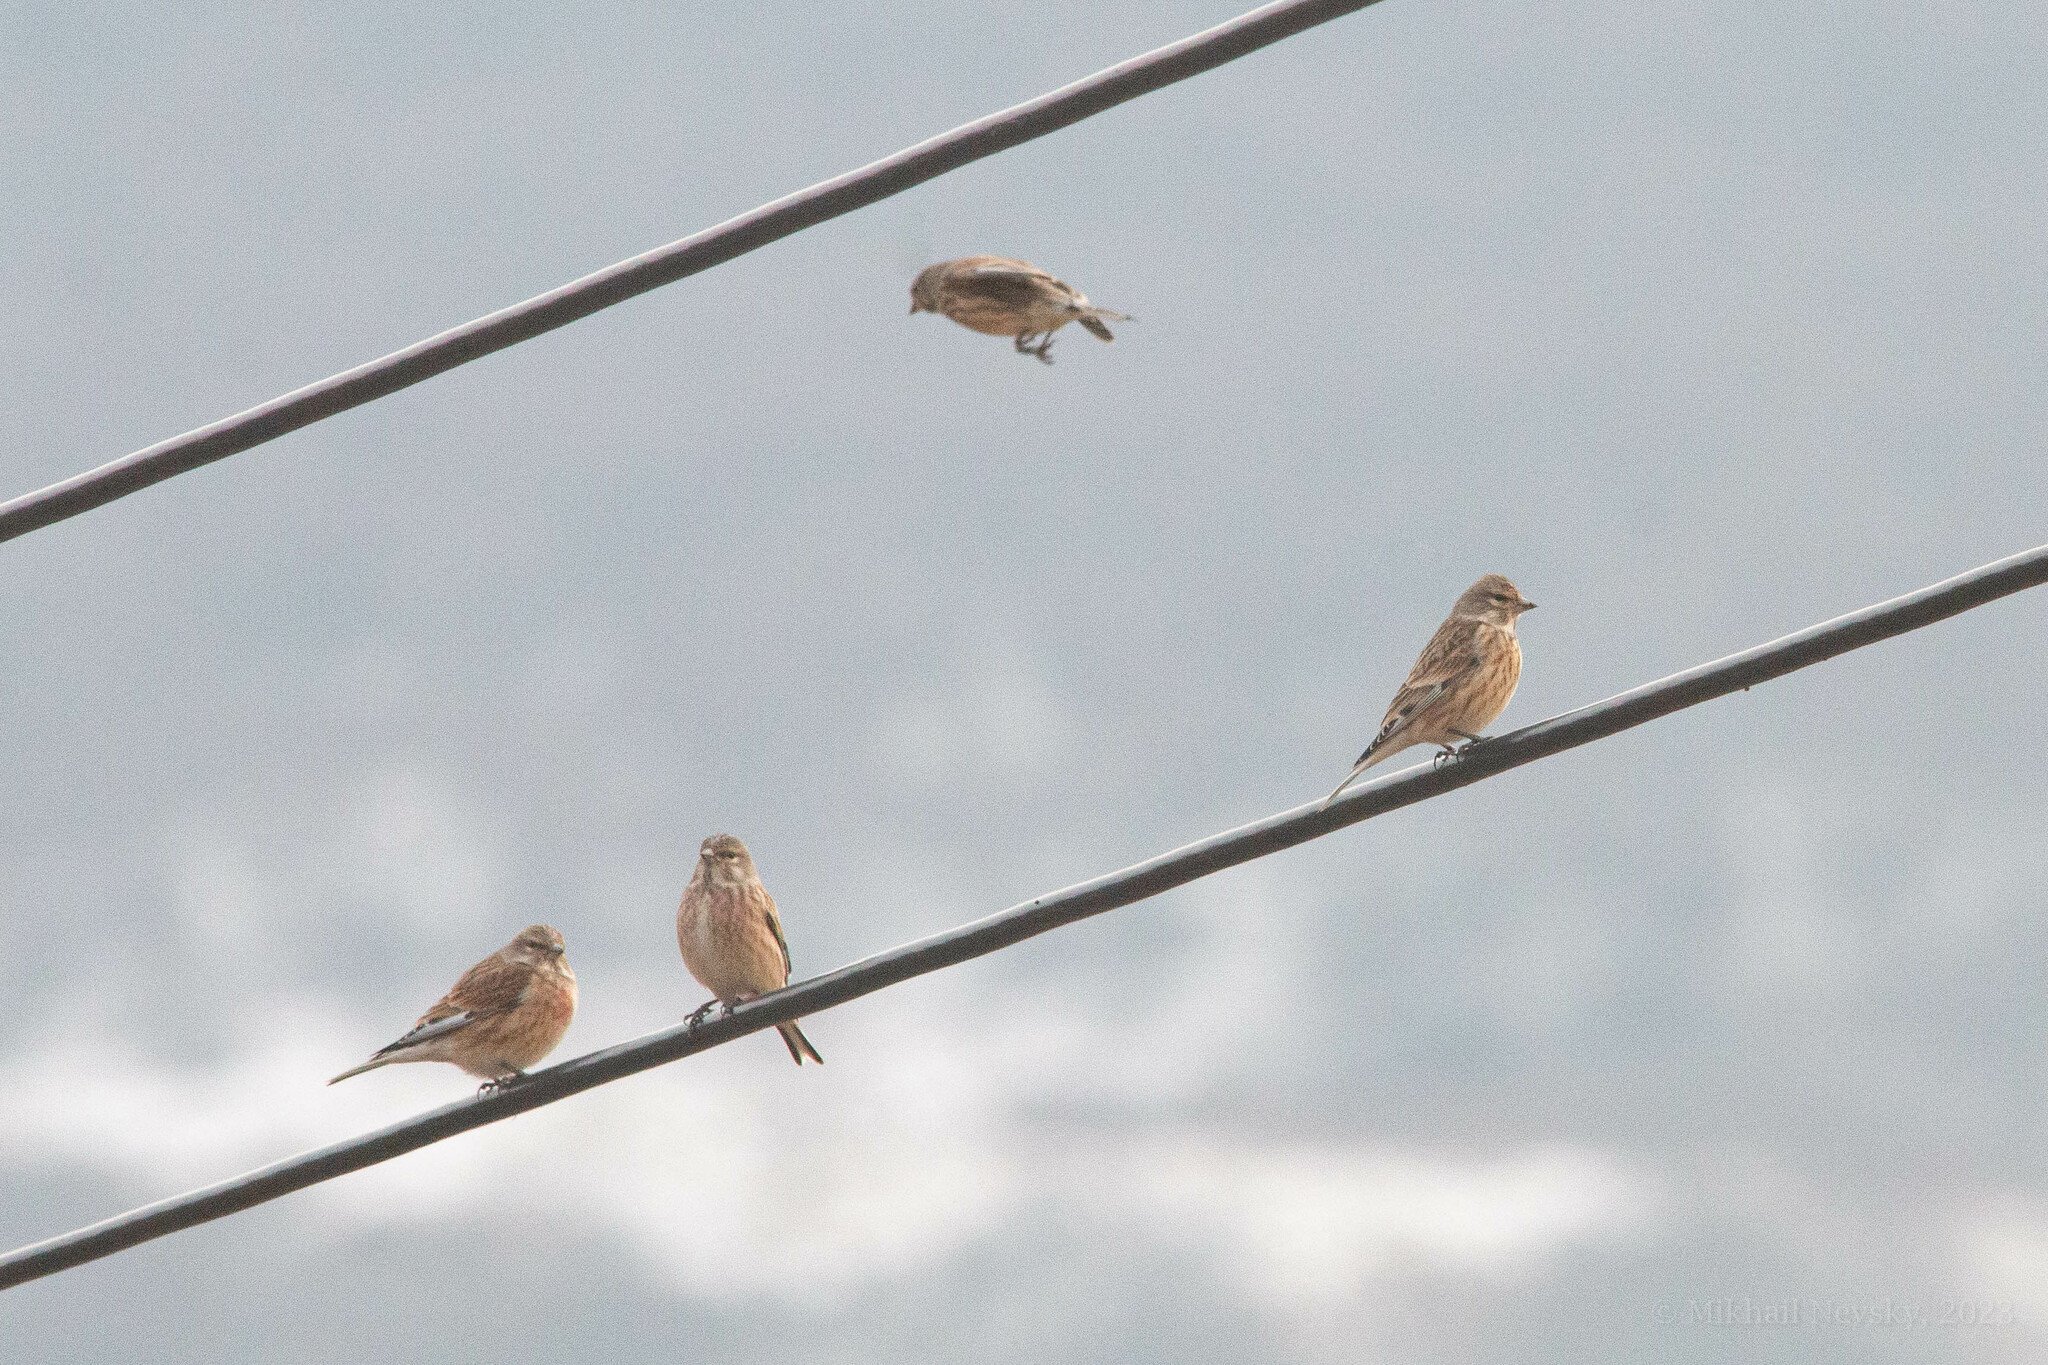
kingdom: Animalia
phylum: Chordata
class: Aves
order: Passeriformes
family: Fringillidae
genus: Linaria
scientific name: Linaria cannabina
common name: Common linnet
